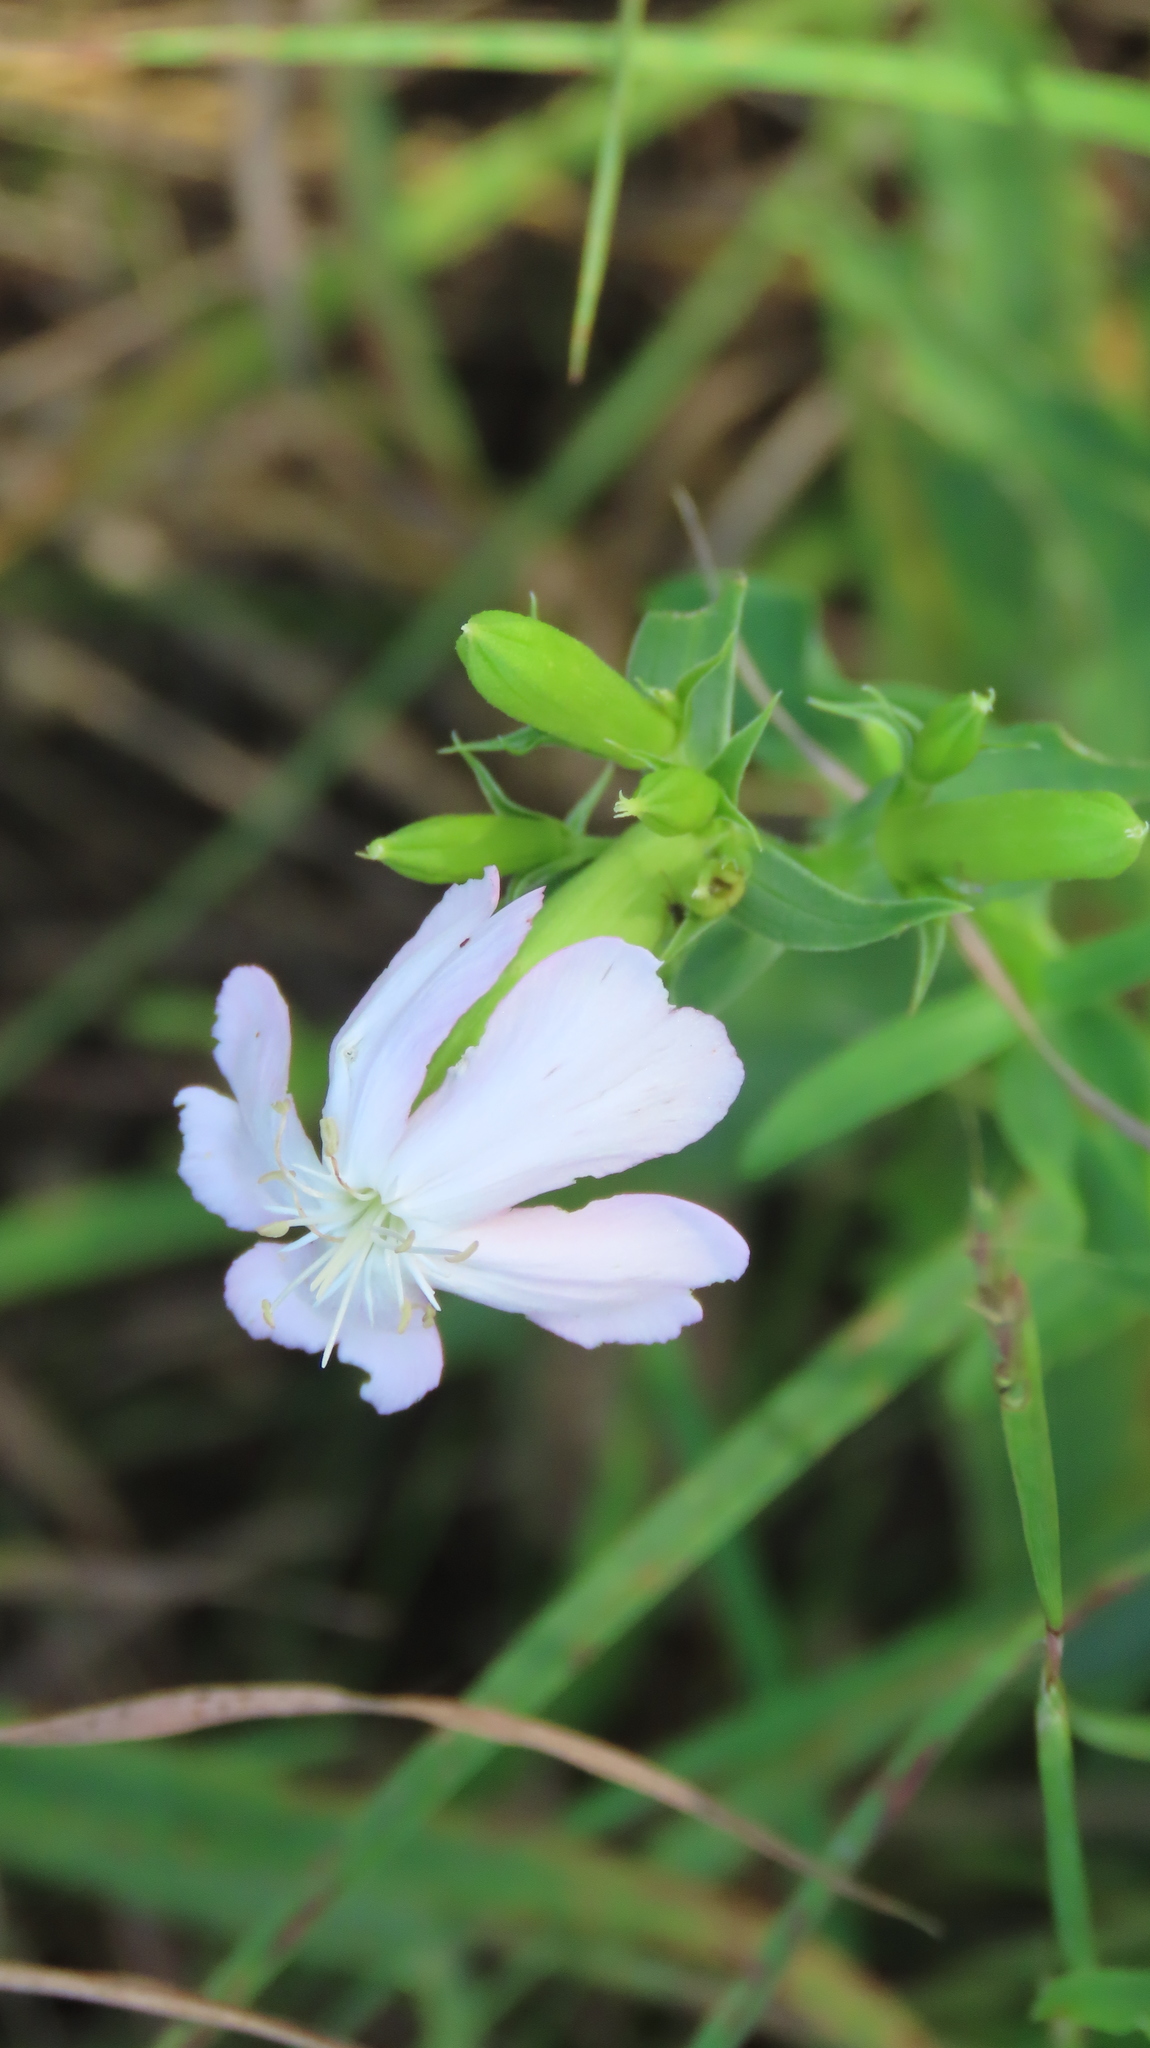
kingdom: Plantae
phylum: Tracheophyta
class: Magnoliopsida
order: Caryophyllales
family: Caryophyllaceae
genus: Saponaria
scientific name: Saponaria officinalis
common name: Soapwort
